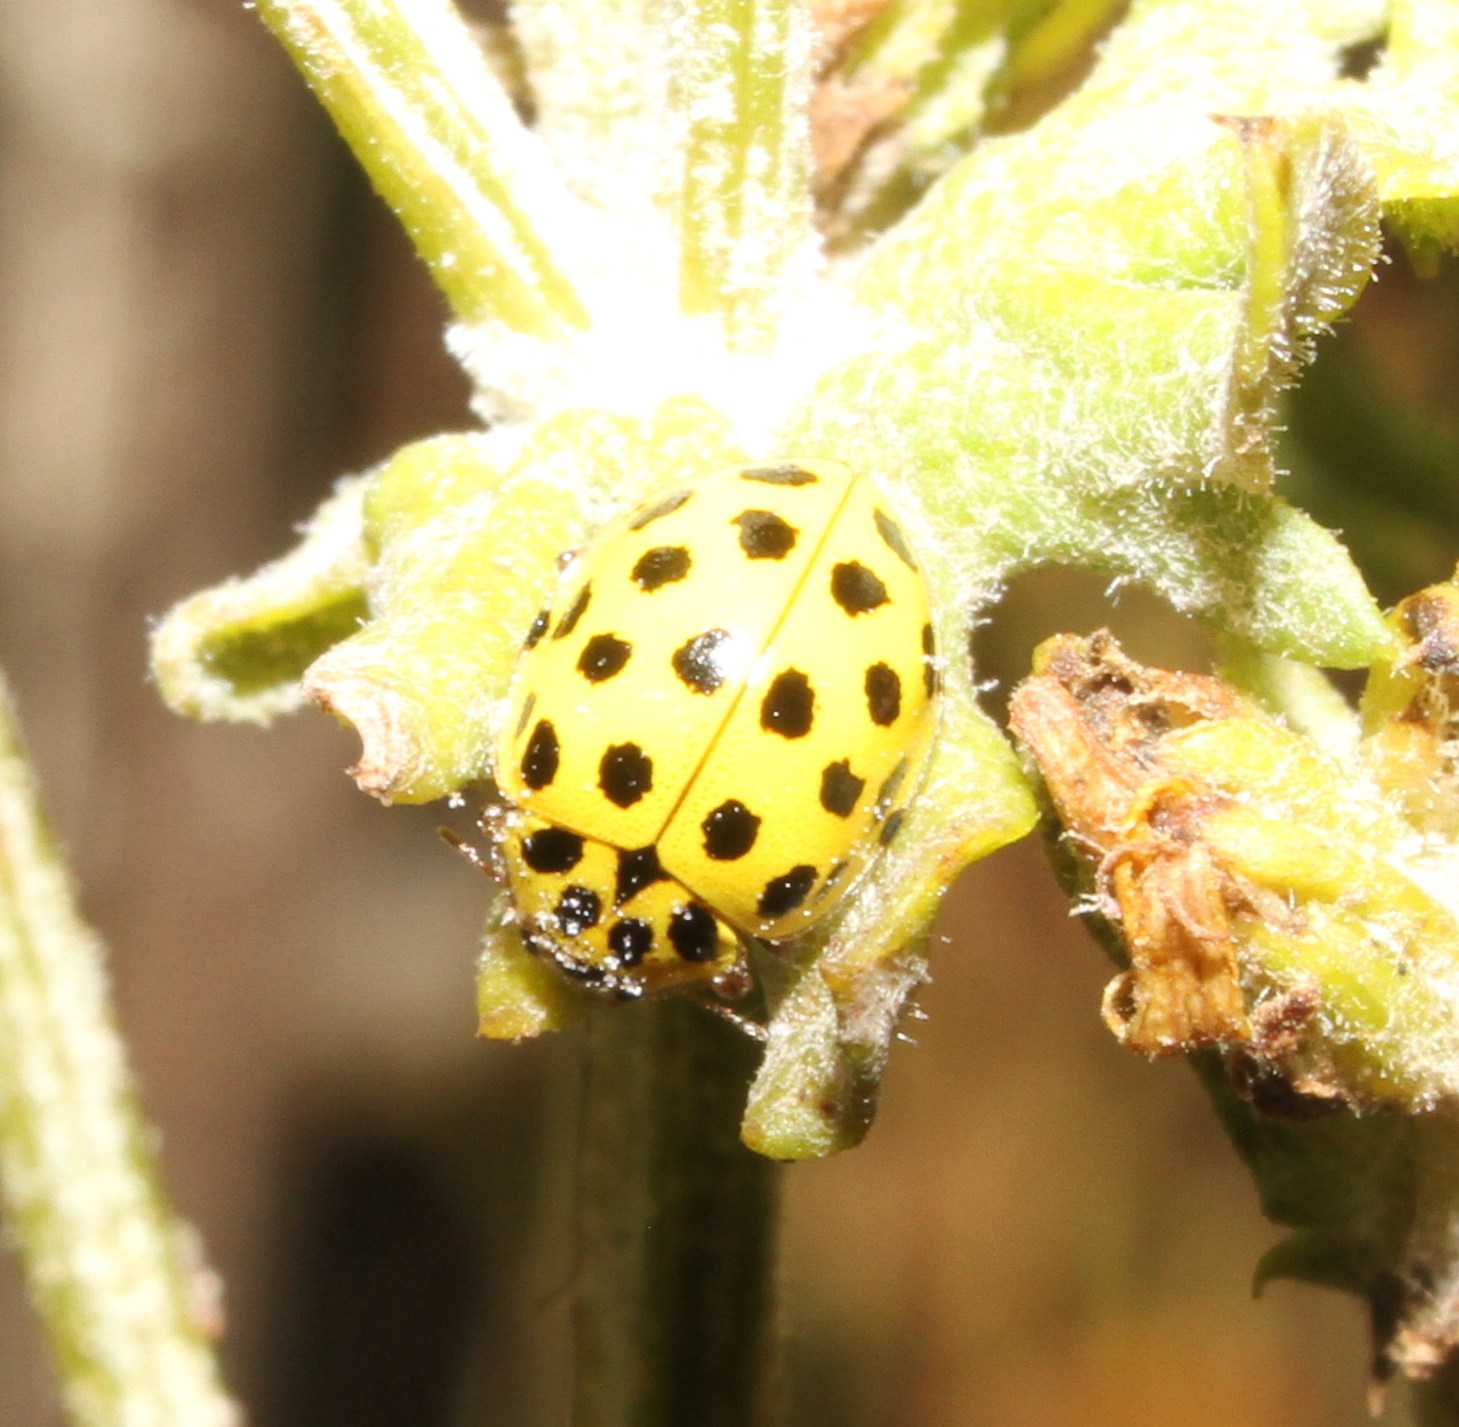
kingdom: Animalia
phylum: Arthropoda
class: Insecta
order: Coleoptera
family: Coccinellidae
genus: Psyllobora
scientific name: Psyllobora vigintiduopunctata
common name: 22-spot ladybird
